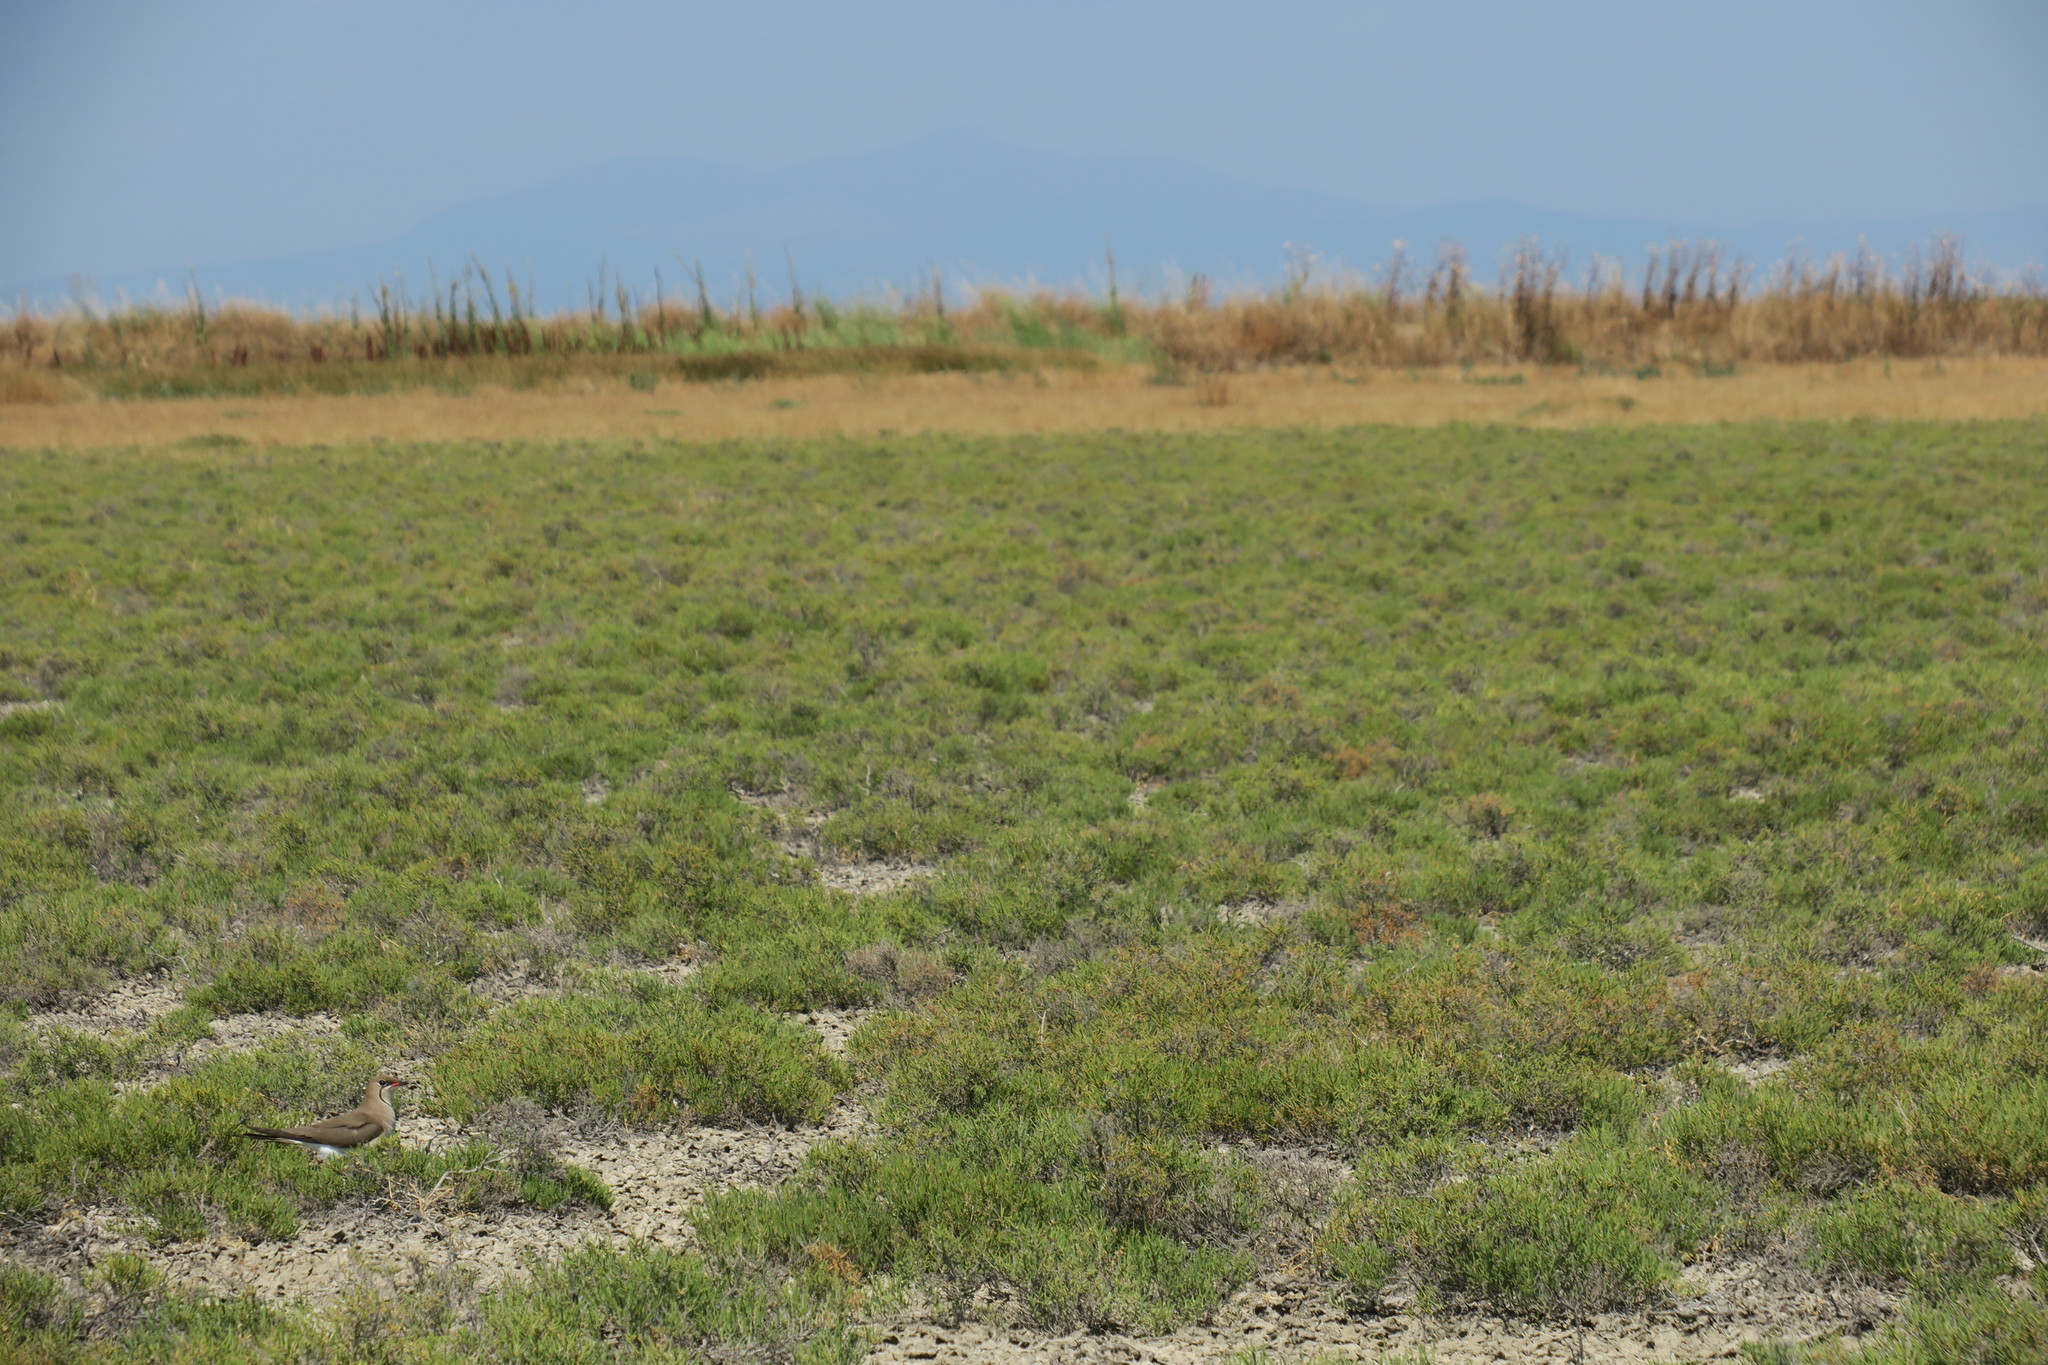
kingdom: Animalia
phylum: Chordata
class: Aves
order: Charadriiformes
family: Glareolidae
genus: Glareola
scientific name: Glareola pratincola
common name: Collared pratincole
